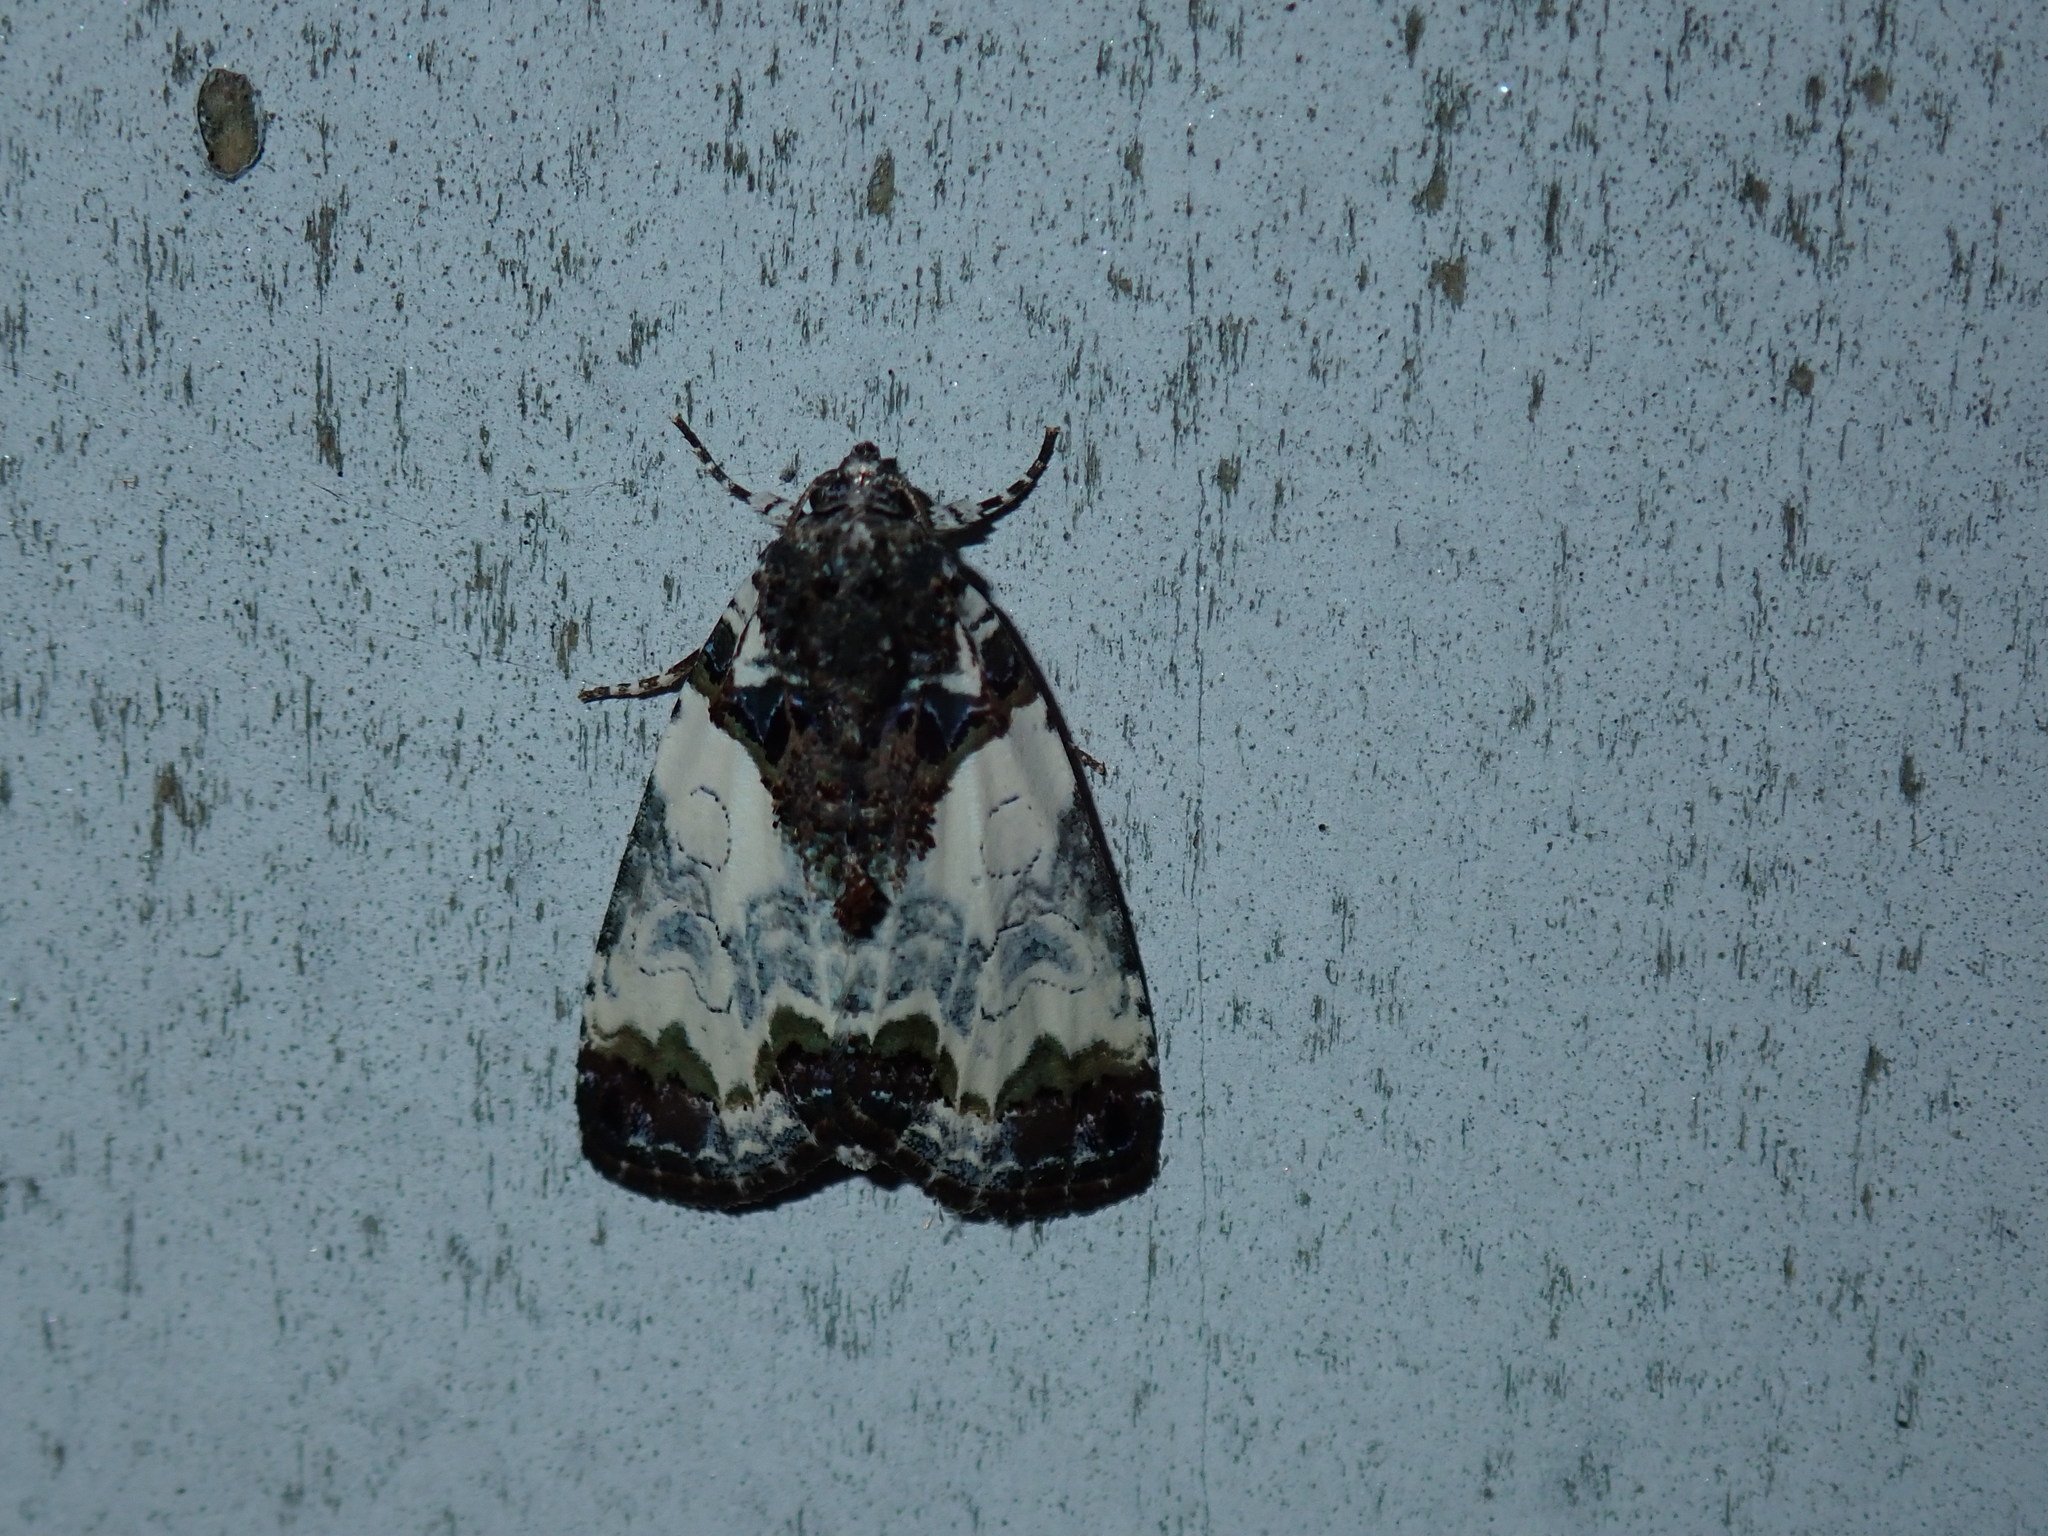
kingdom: Animalia
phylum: Arthropoda
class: Insecta
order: Lepidoptera
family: Noctuidae
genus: Cerma
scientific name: Cerma cerintha
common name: Tufted bird-dropping moth
